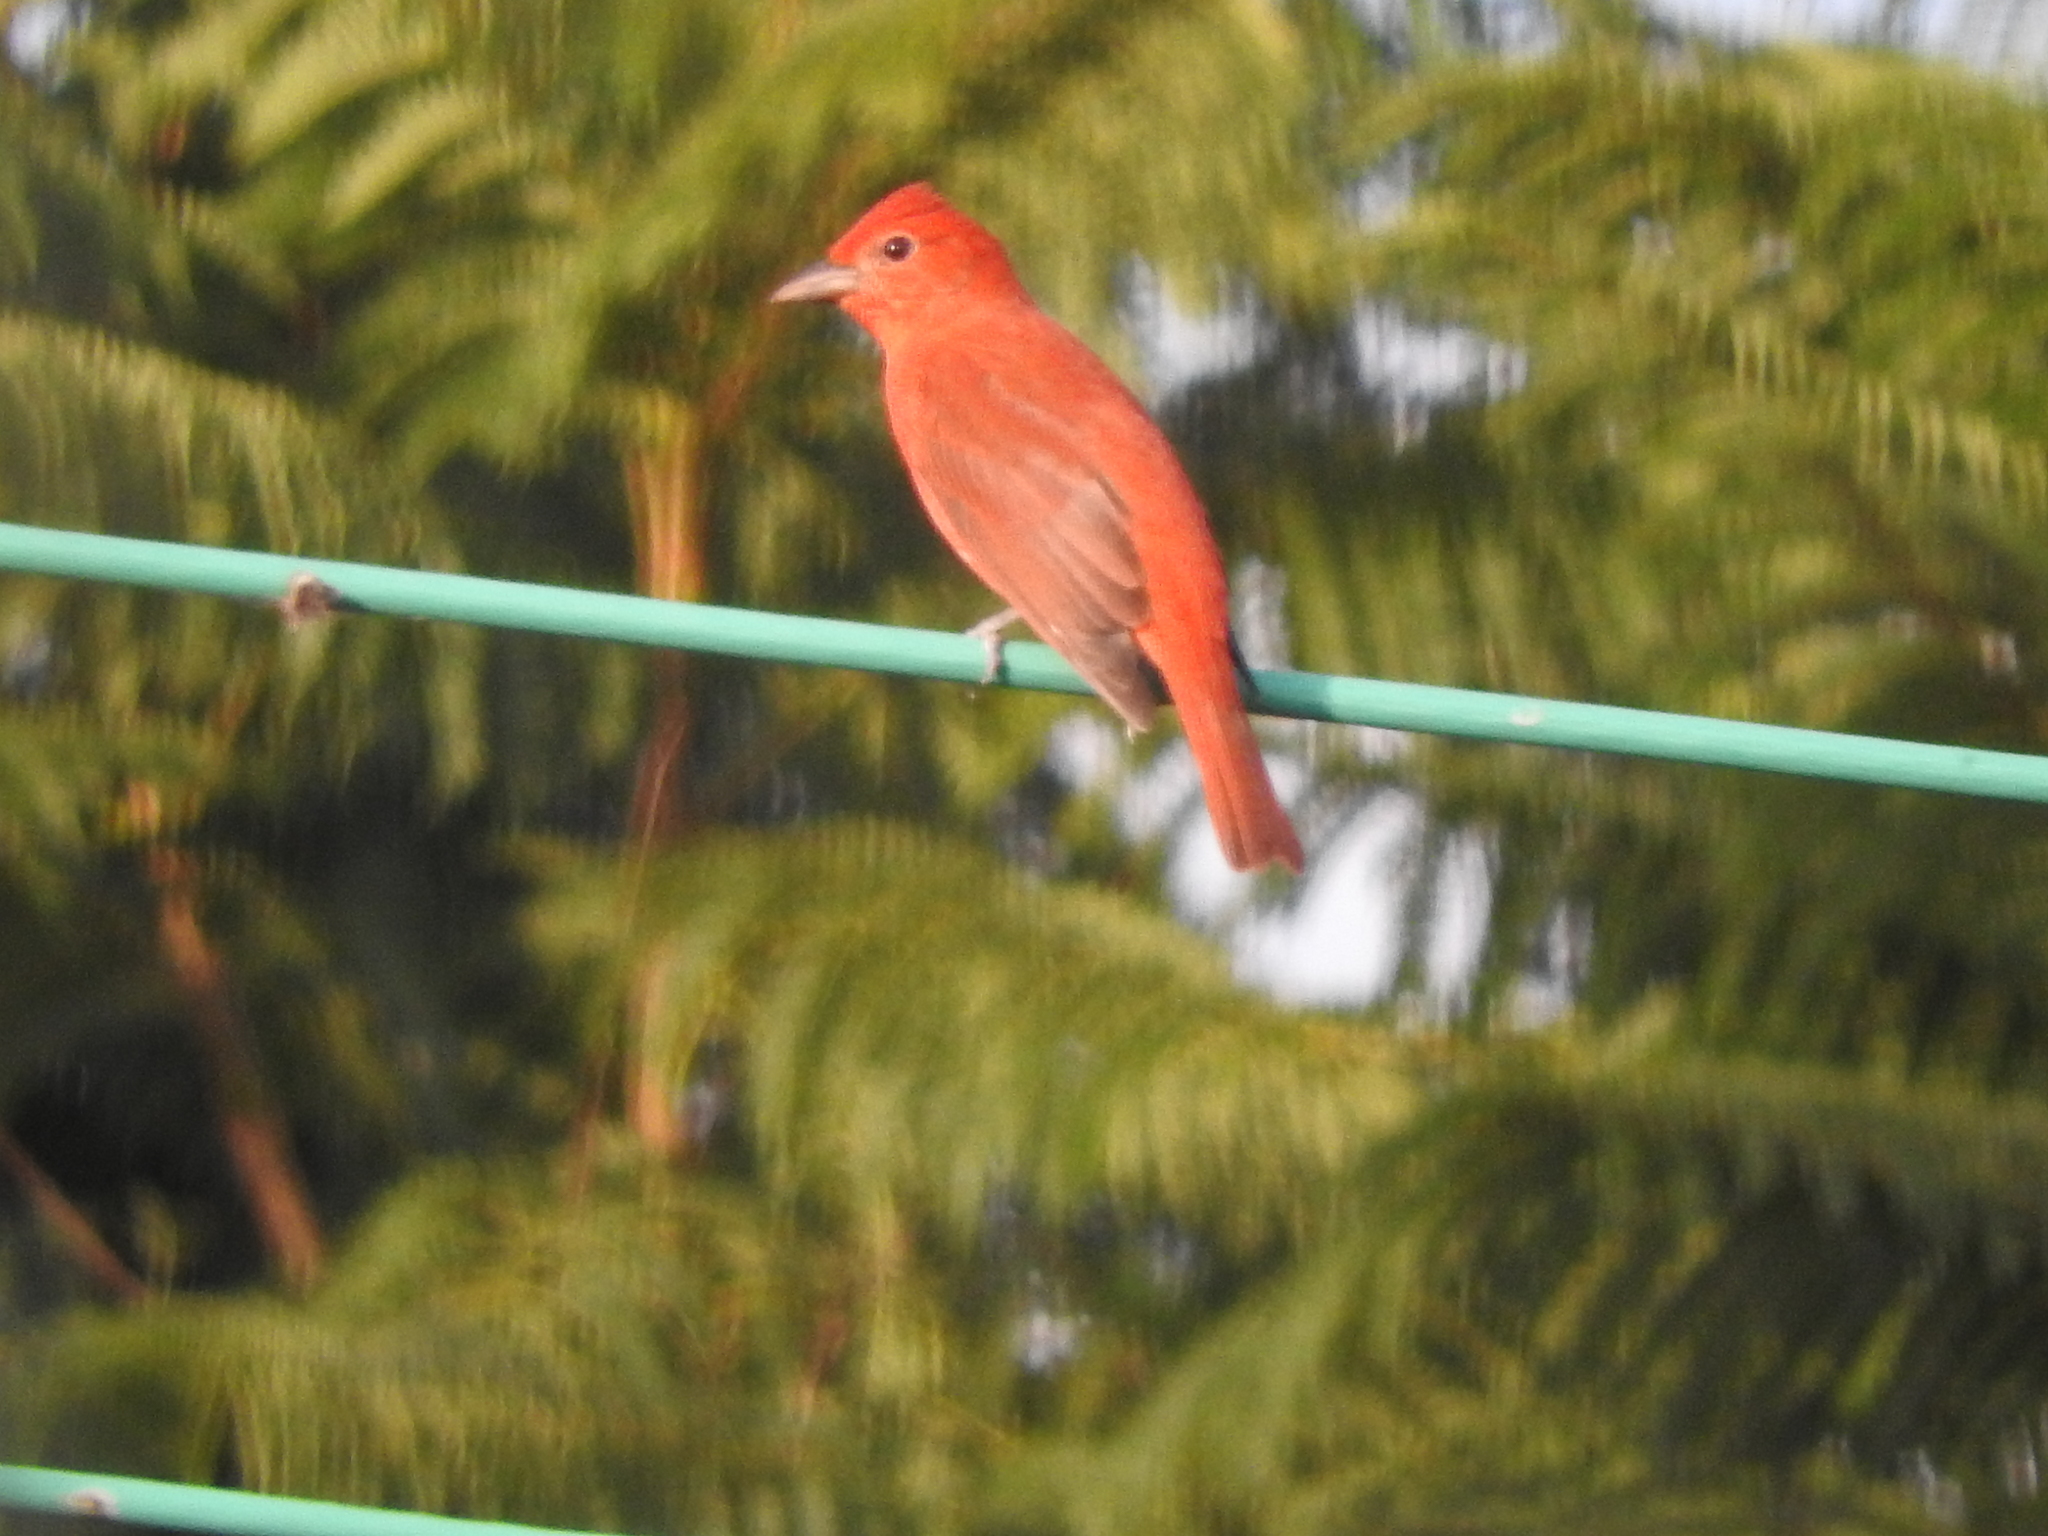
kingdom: Animalia
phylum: Chordata
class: Aves
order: Passeriformes
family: Cardinalidae
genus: Piranga
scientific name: Piranga rubra
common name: Summer tanager
